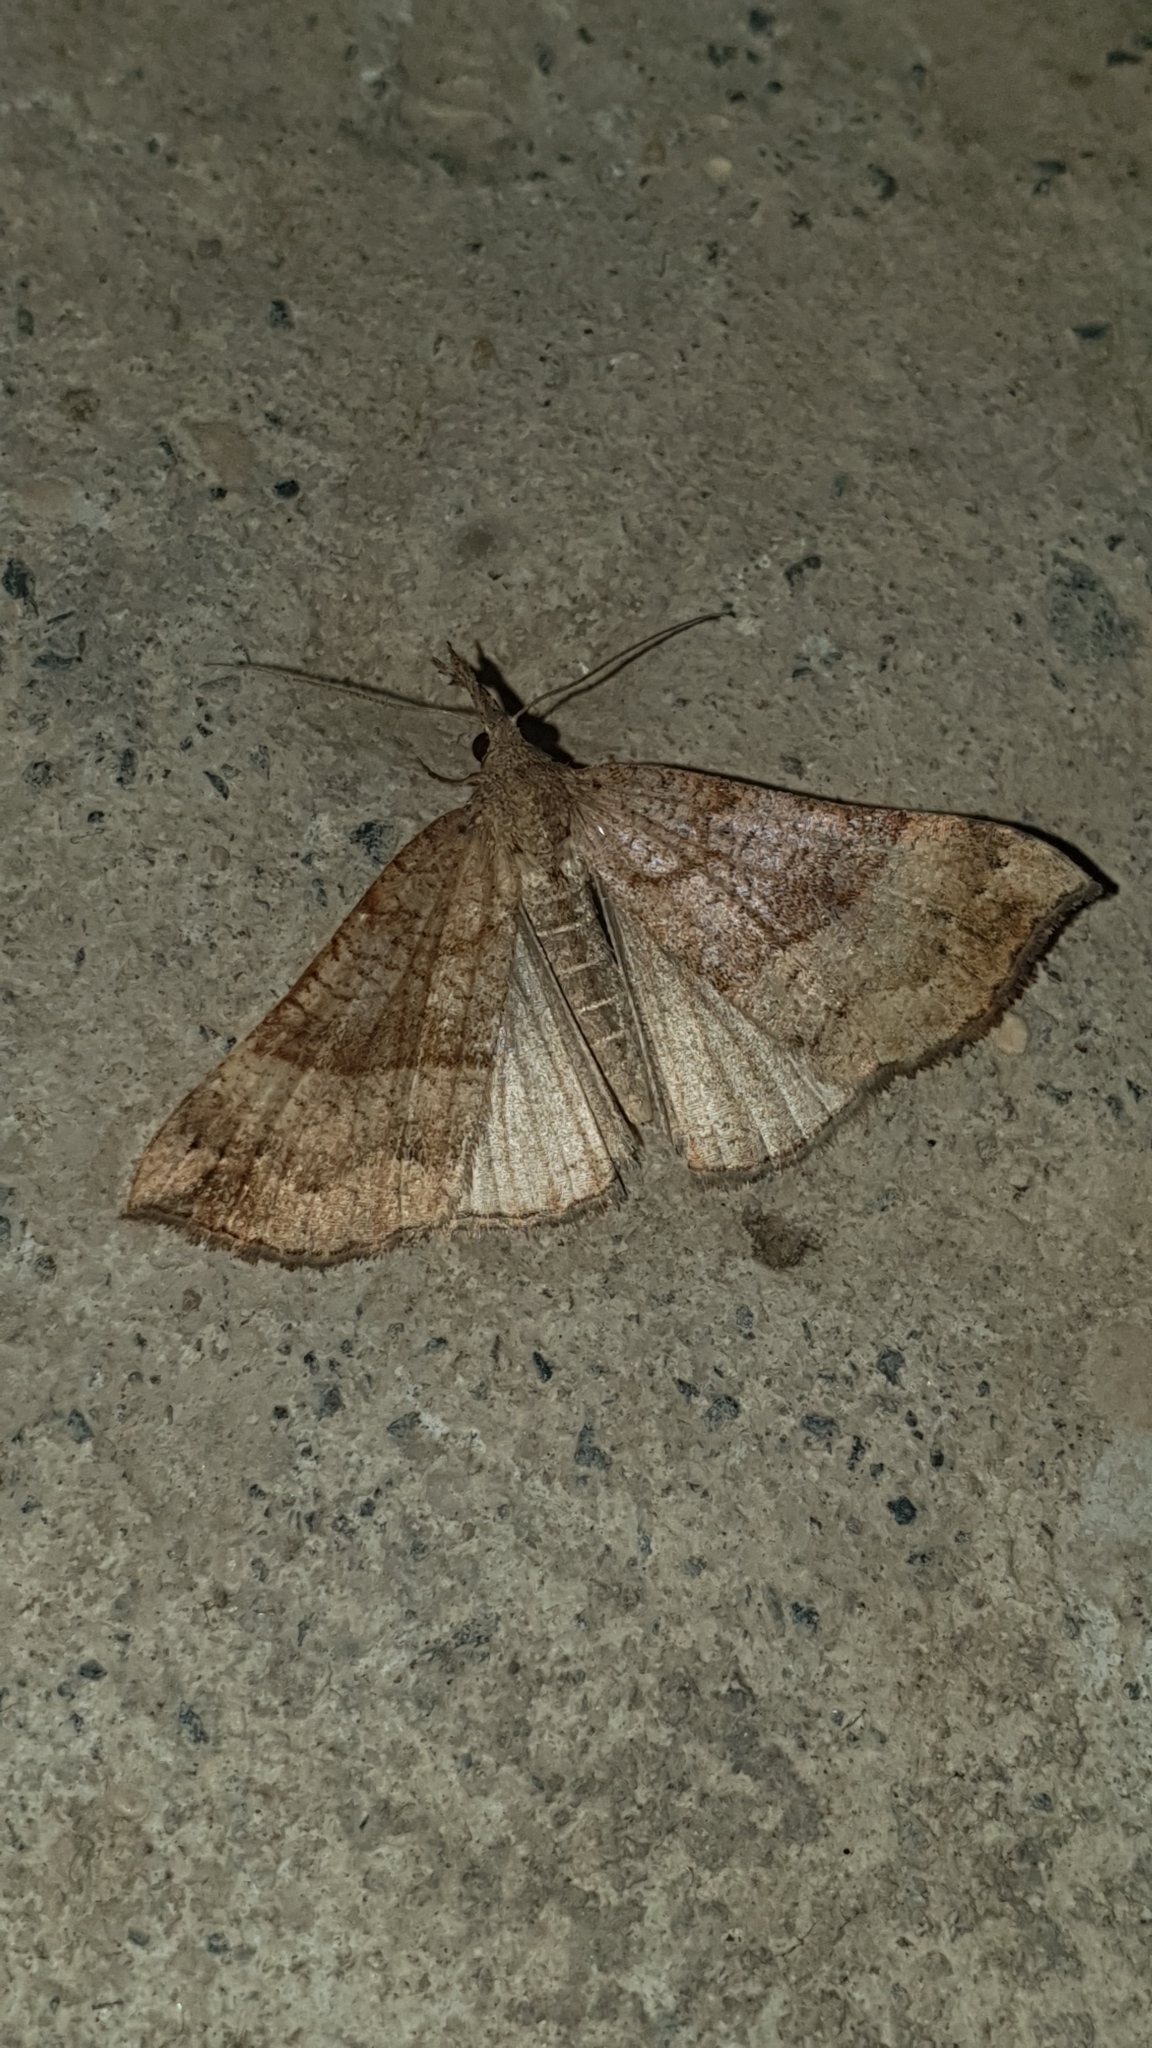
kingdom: Animalia
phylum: Arthropoda
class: Insecta
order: Lepidoptera
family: Erebidae
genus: Hypena
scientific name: Hypena proboscidalis
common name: Snout
